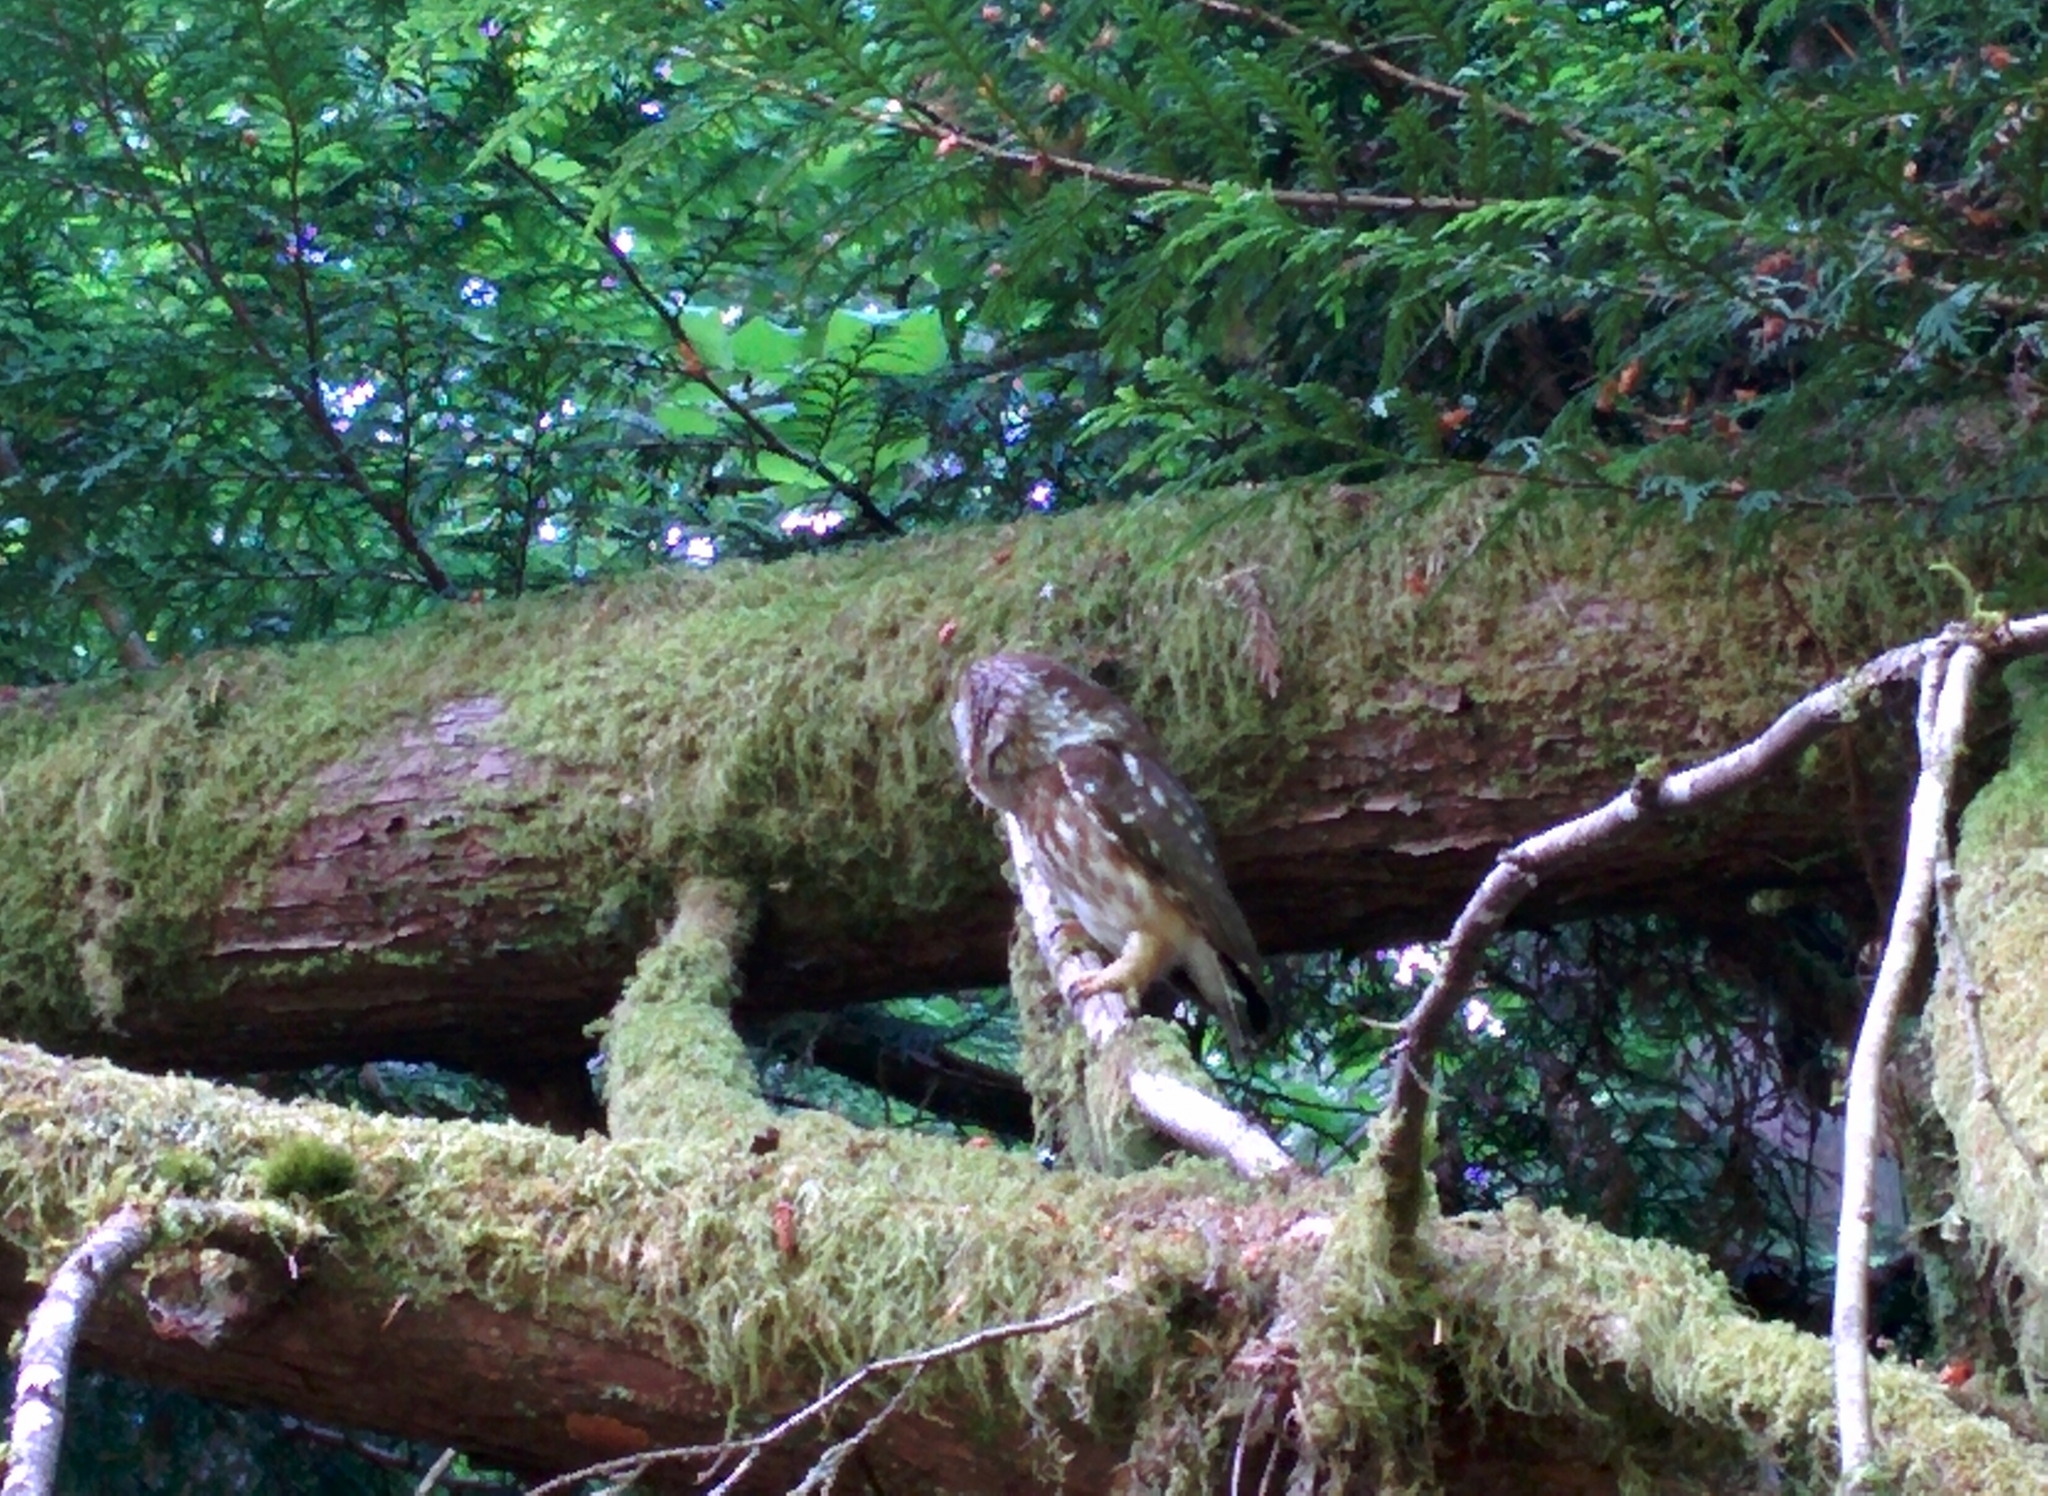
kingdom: Animalia
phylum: Chordata
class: Aves
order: Strigiformes
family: Strigidae
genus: Aegolius
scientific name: Aegolius acadicus
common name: Northern saw-whet owl
